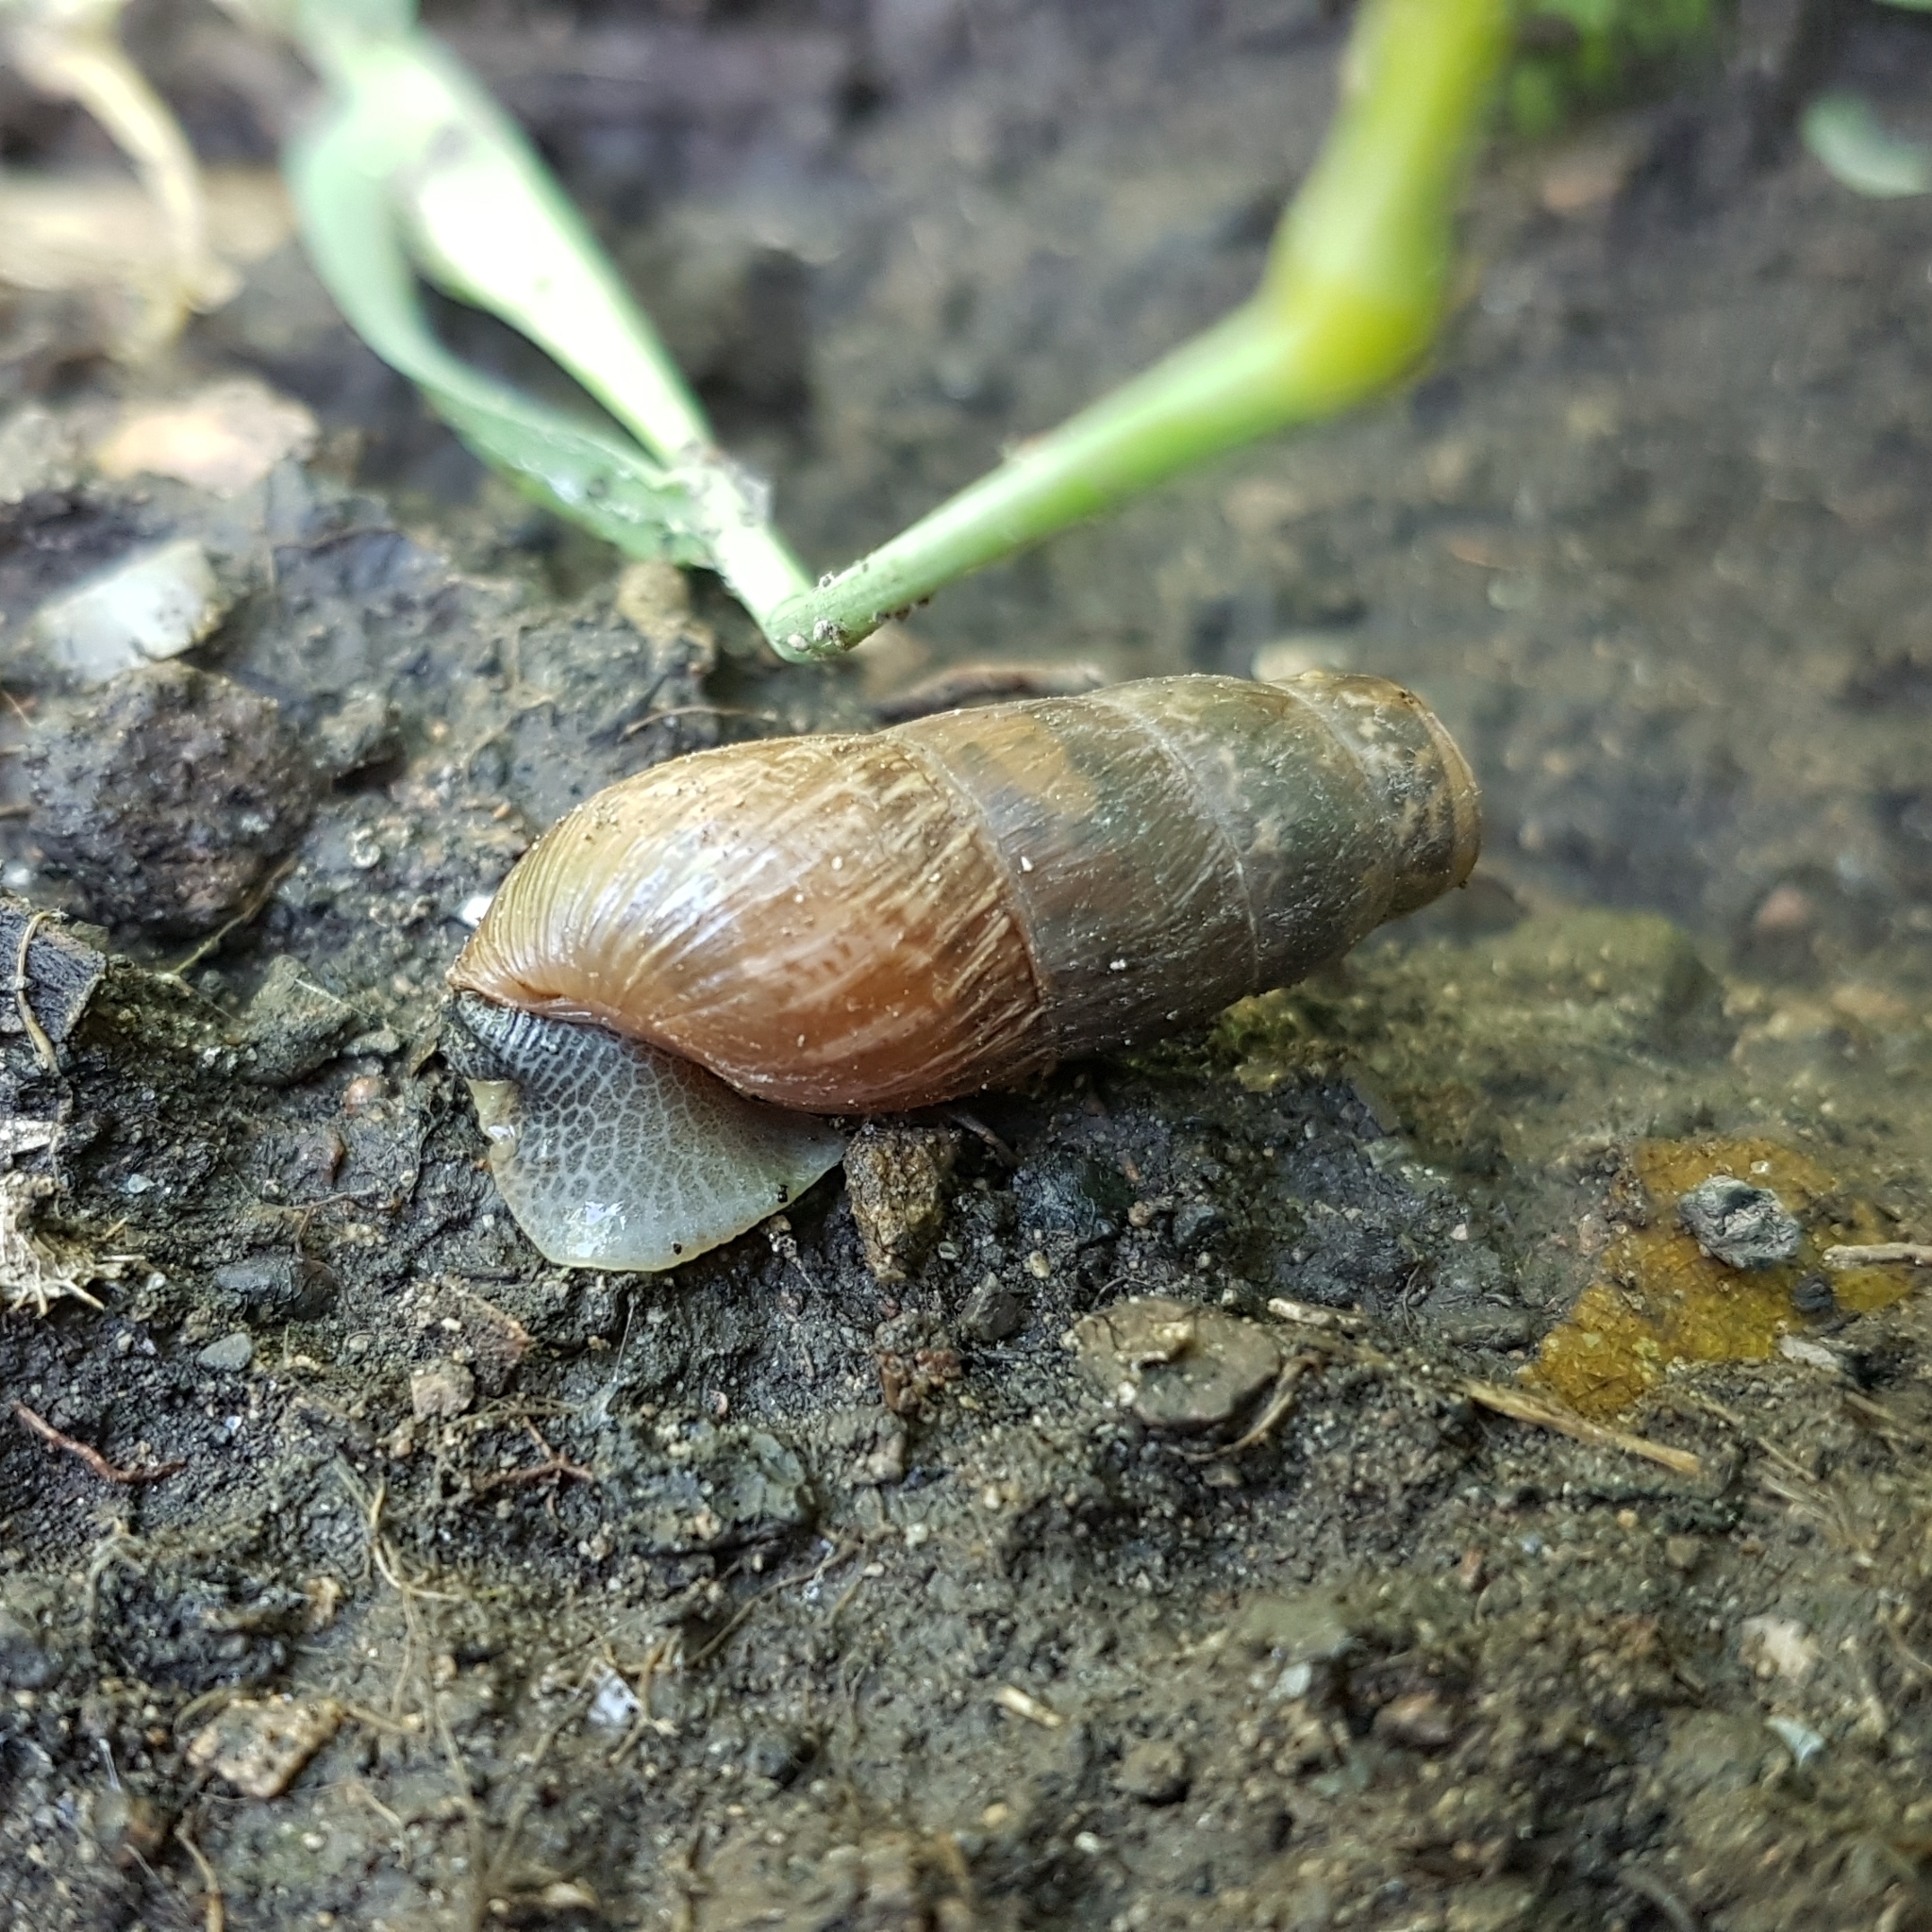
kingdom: Animalia
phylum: Mollusca
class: Gastropoda
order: Stylommatophora
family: Achatinidae
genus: Rumina
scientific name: Rumina decollata
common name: Decollate snail
